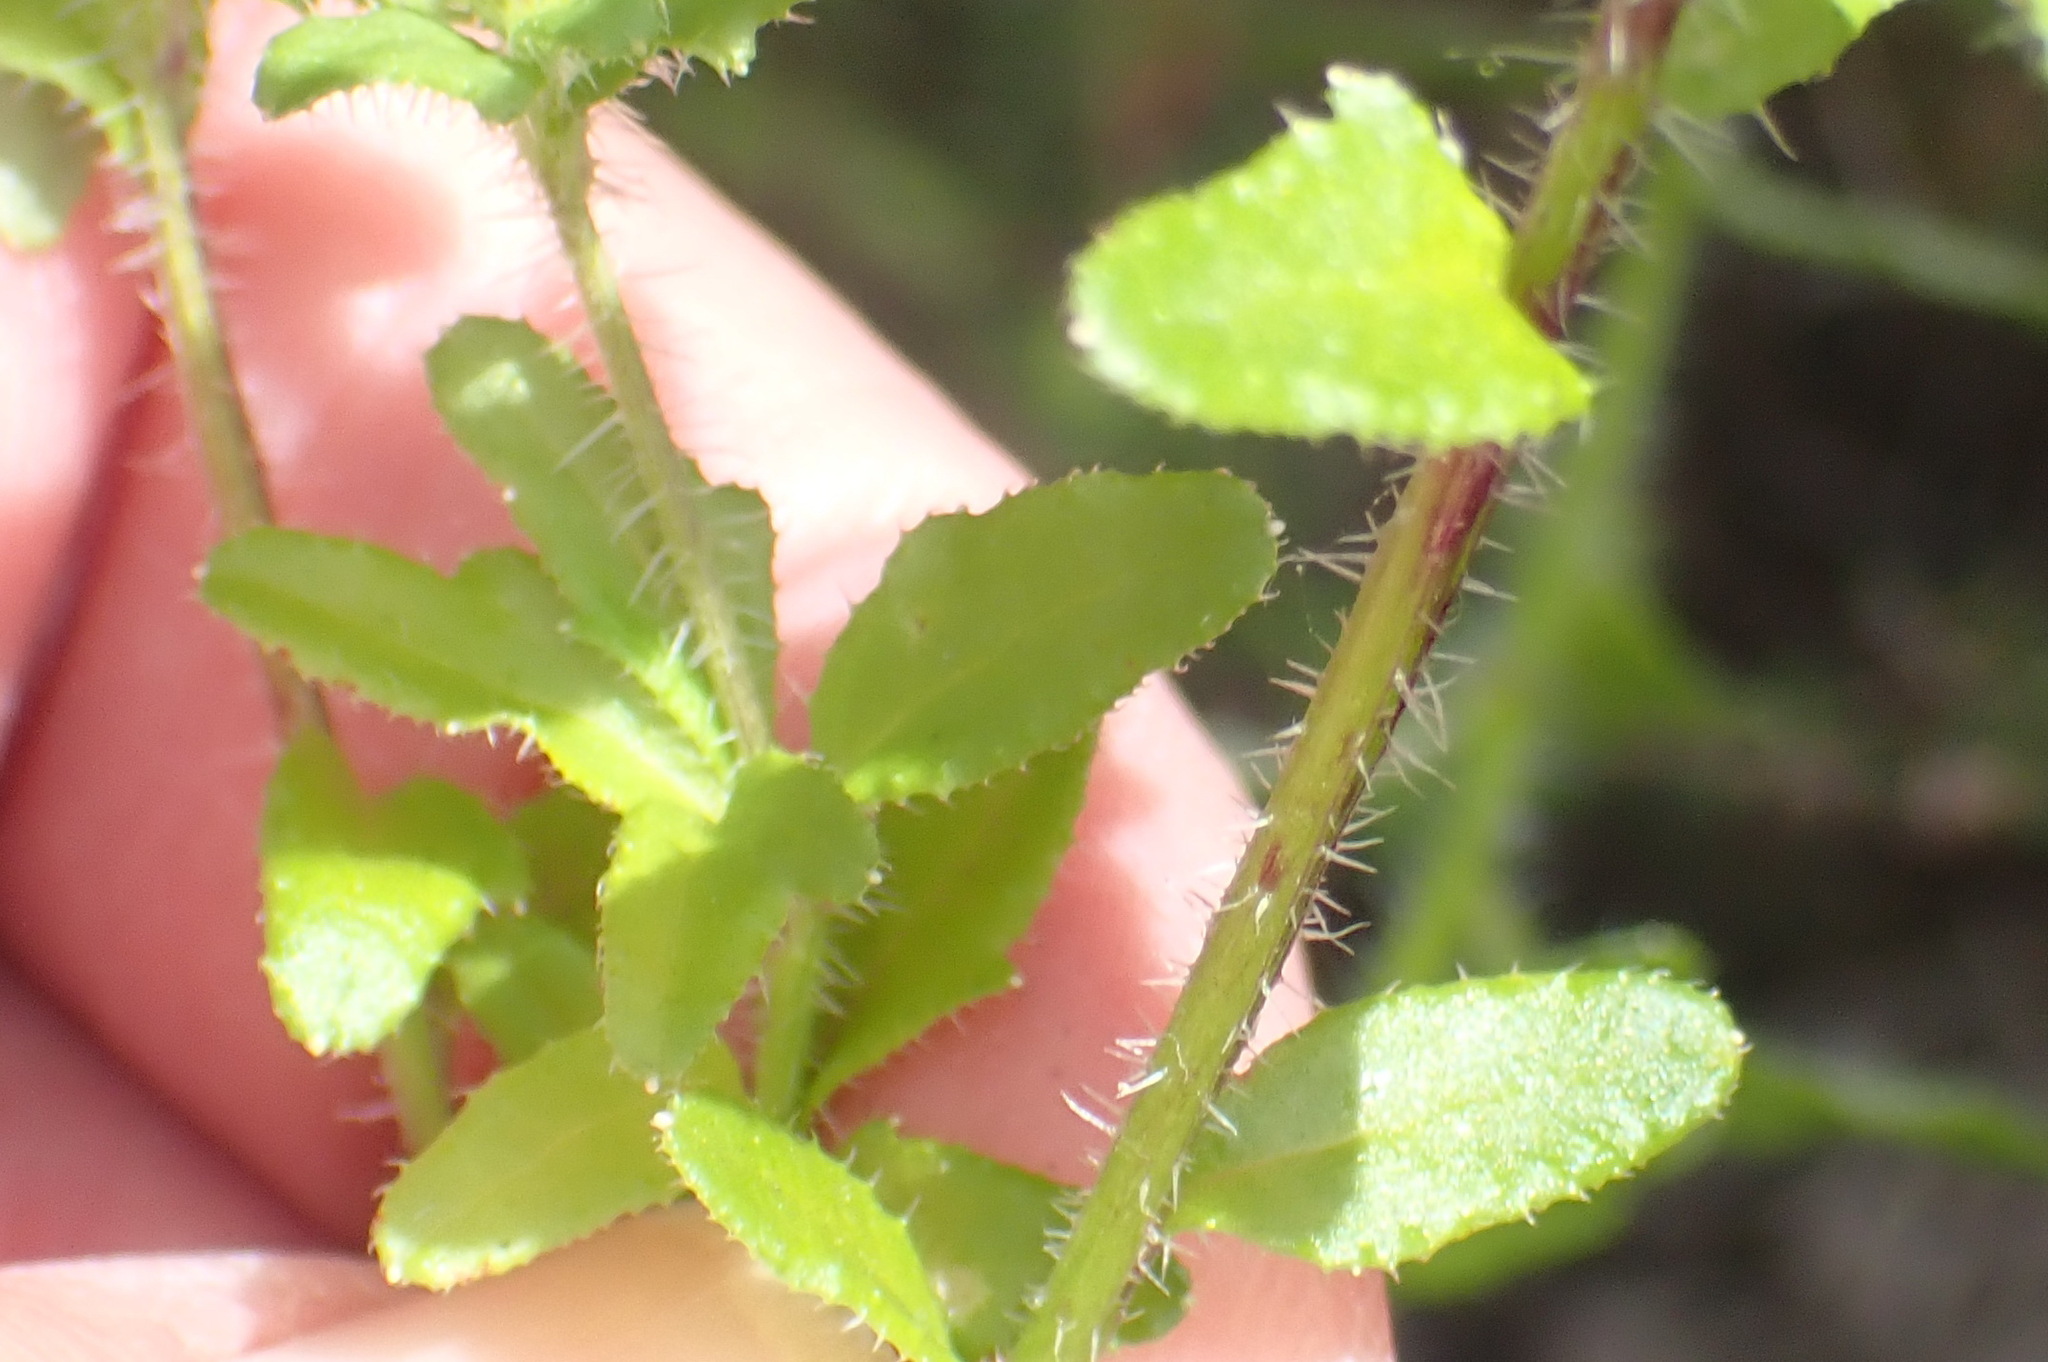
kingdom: Plantae
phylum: Tracheophyta
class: Magnoliopsida
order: Asterales
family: Campanulaceae
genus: Lobelia
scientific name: Lobelia neglecta
